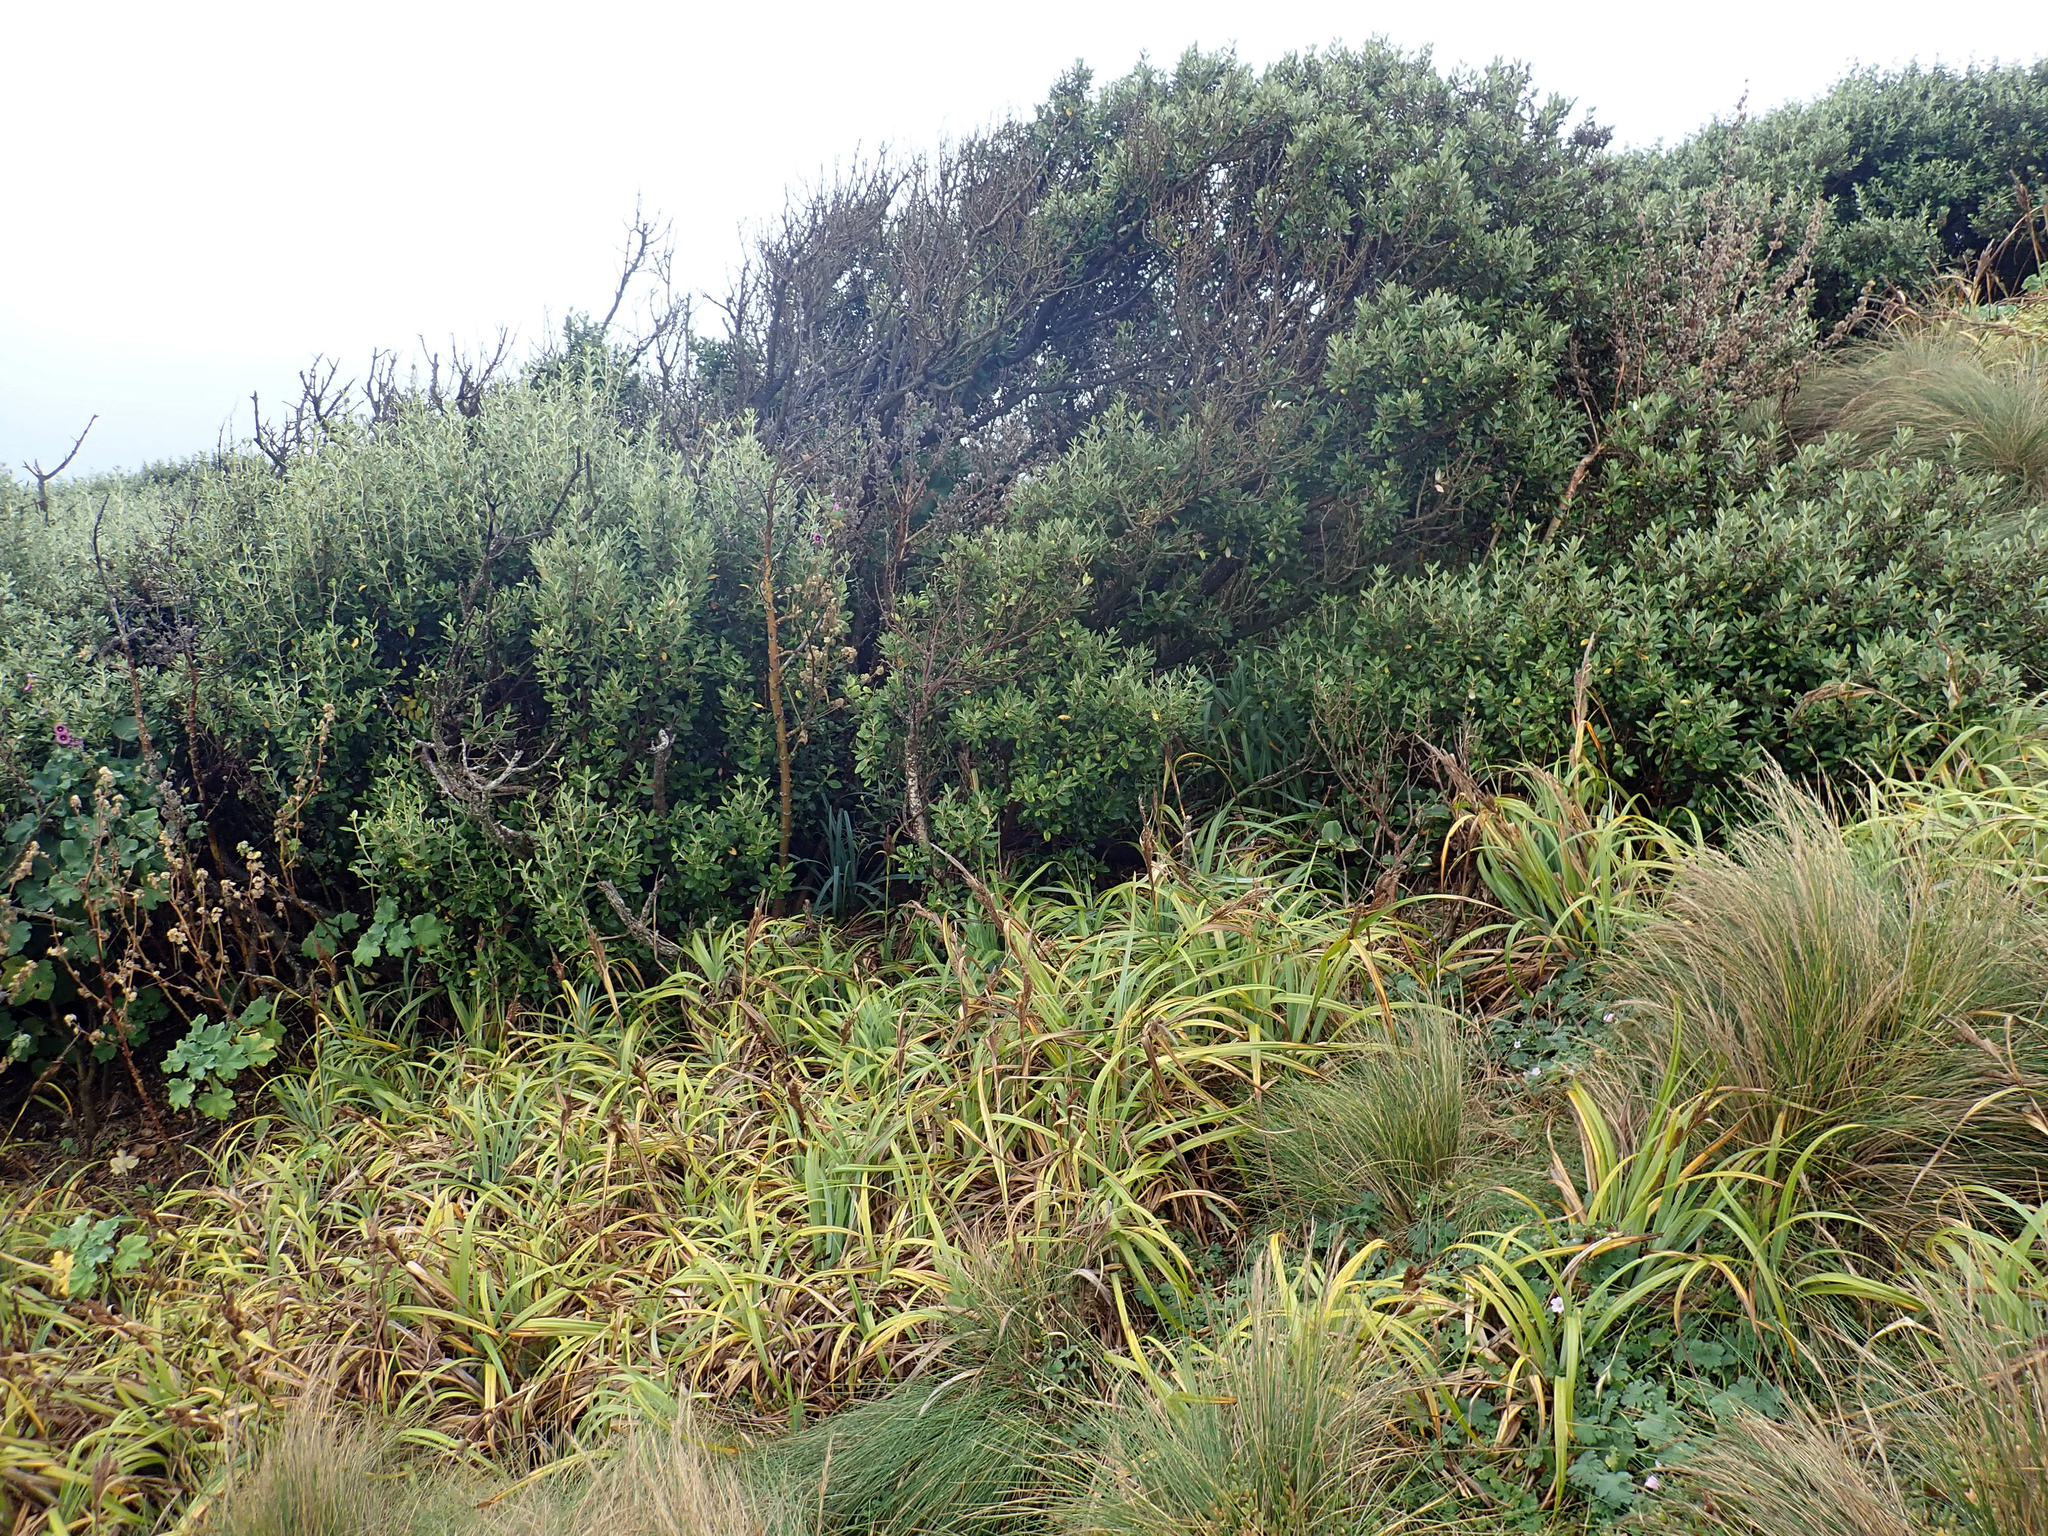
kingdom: Plantae
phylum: Tracheophyta
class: Magnoliopsida
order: Asterales
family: Asteraceae
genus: Olearia
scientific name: Olearia traversiorum
